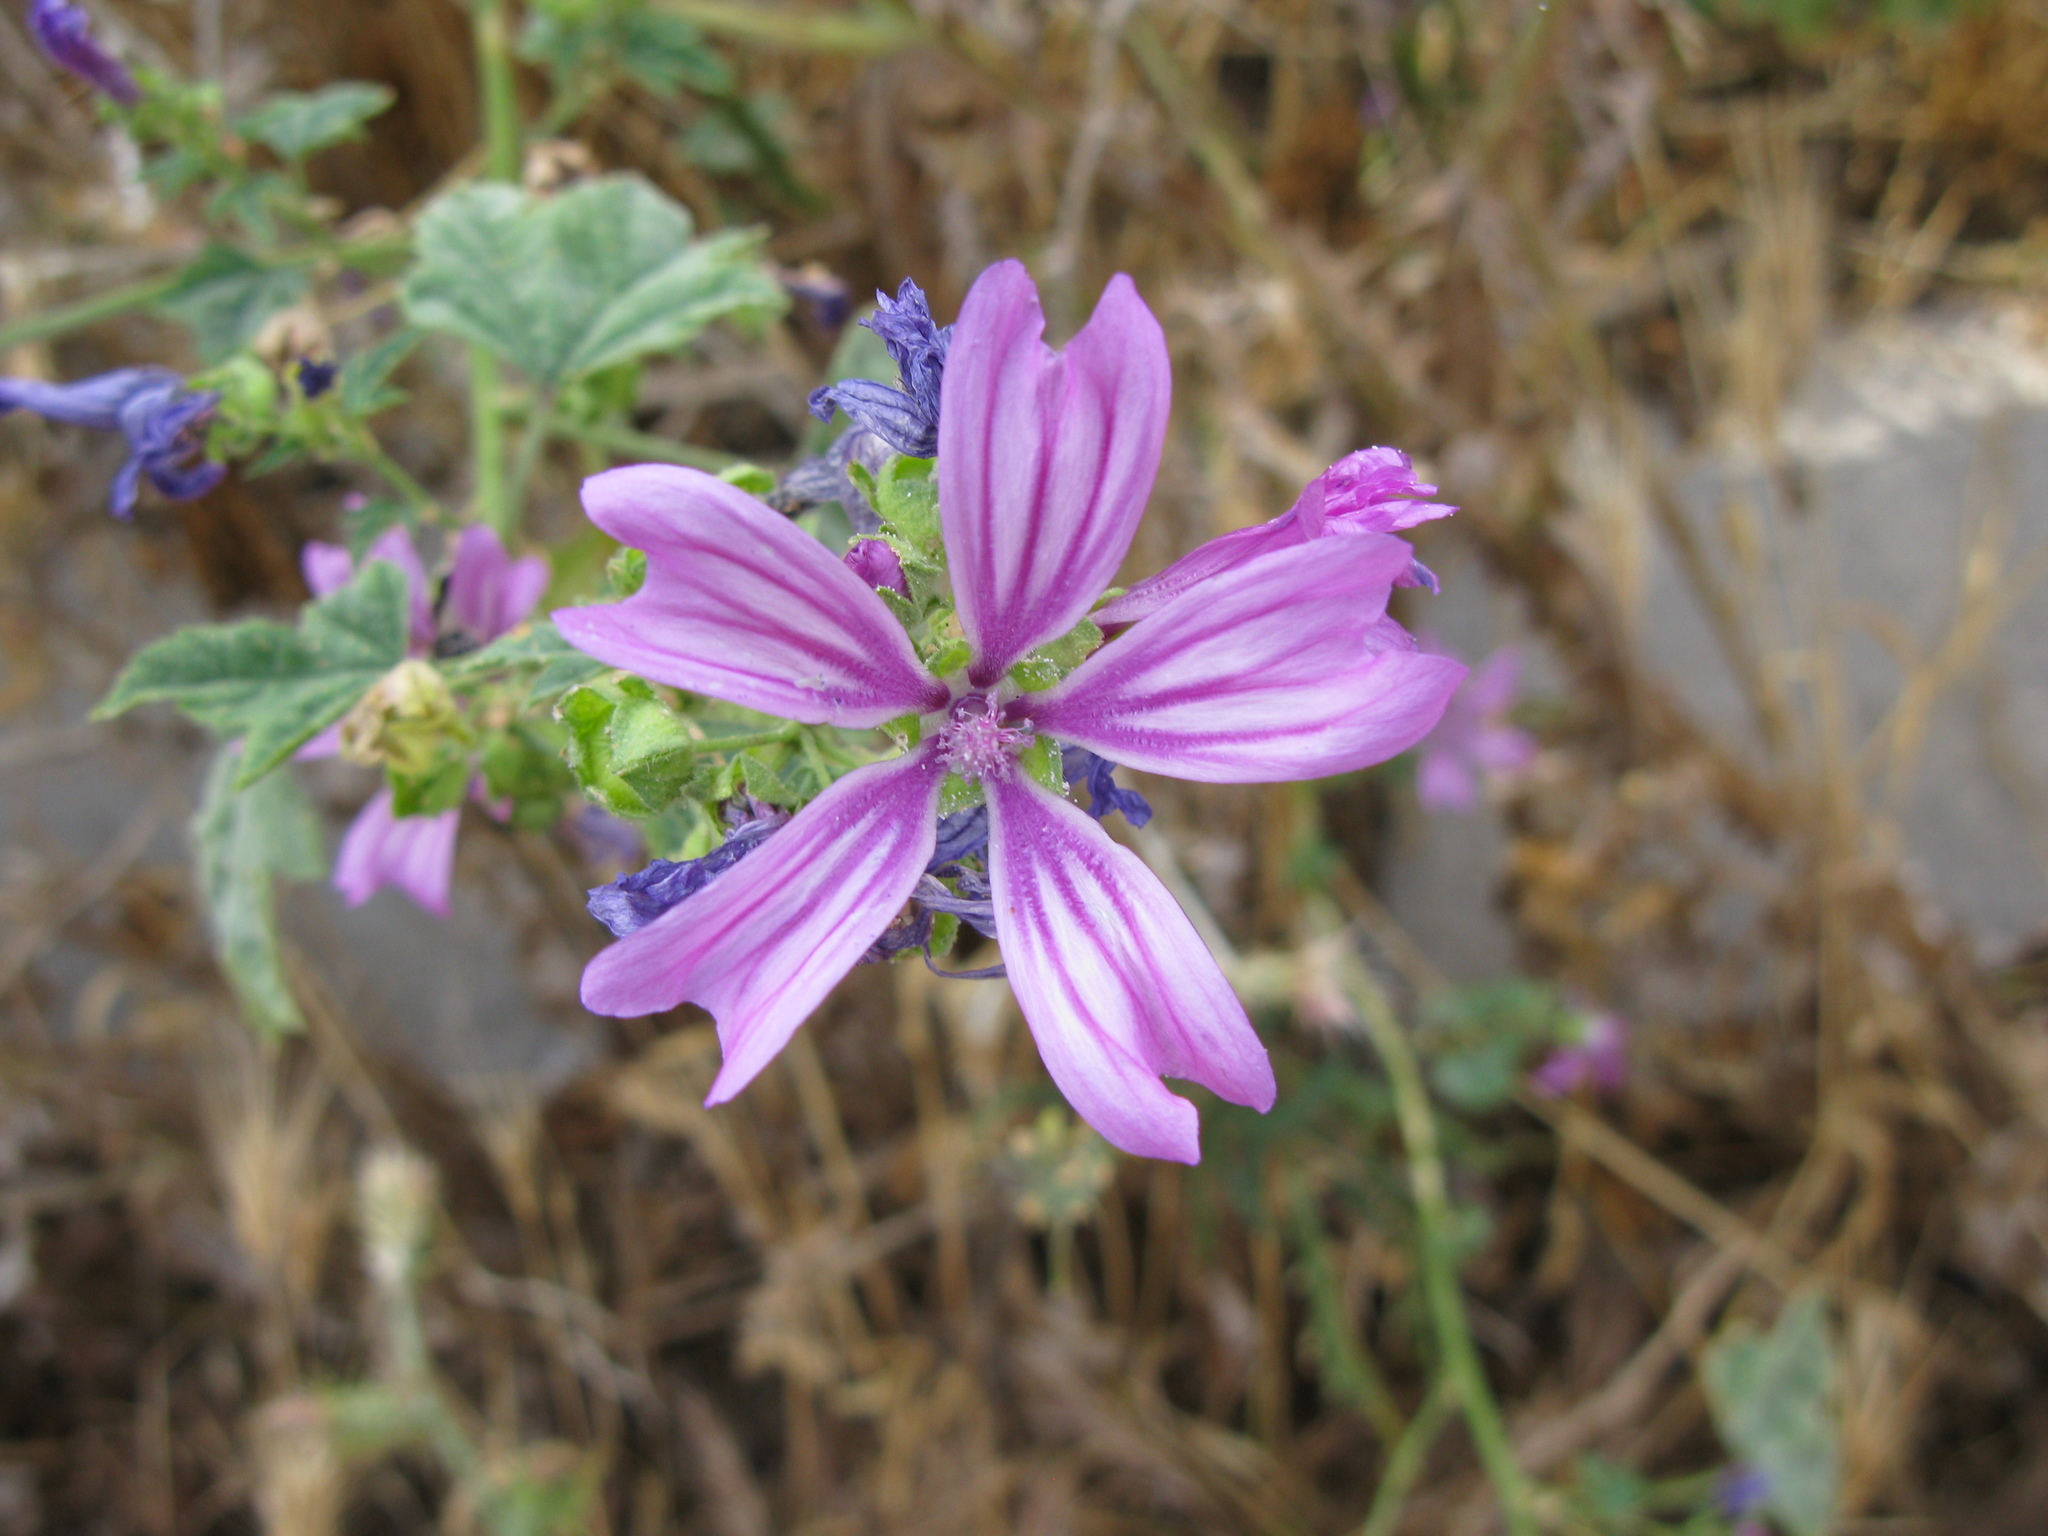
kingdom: Plantae
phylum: Tracheophyta
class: Magnoliopsida
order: Malvales
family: Malvaceae
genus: Malva
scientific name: Malva sylvestris
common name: Common mallow
